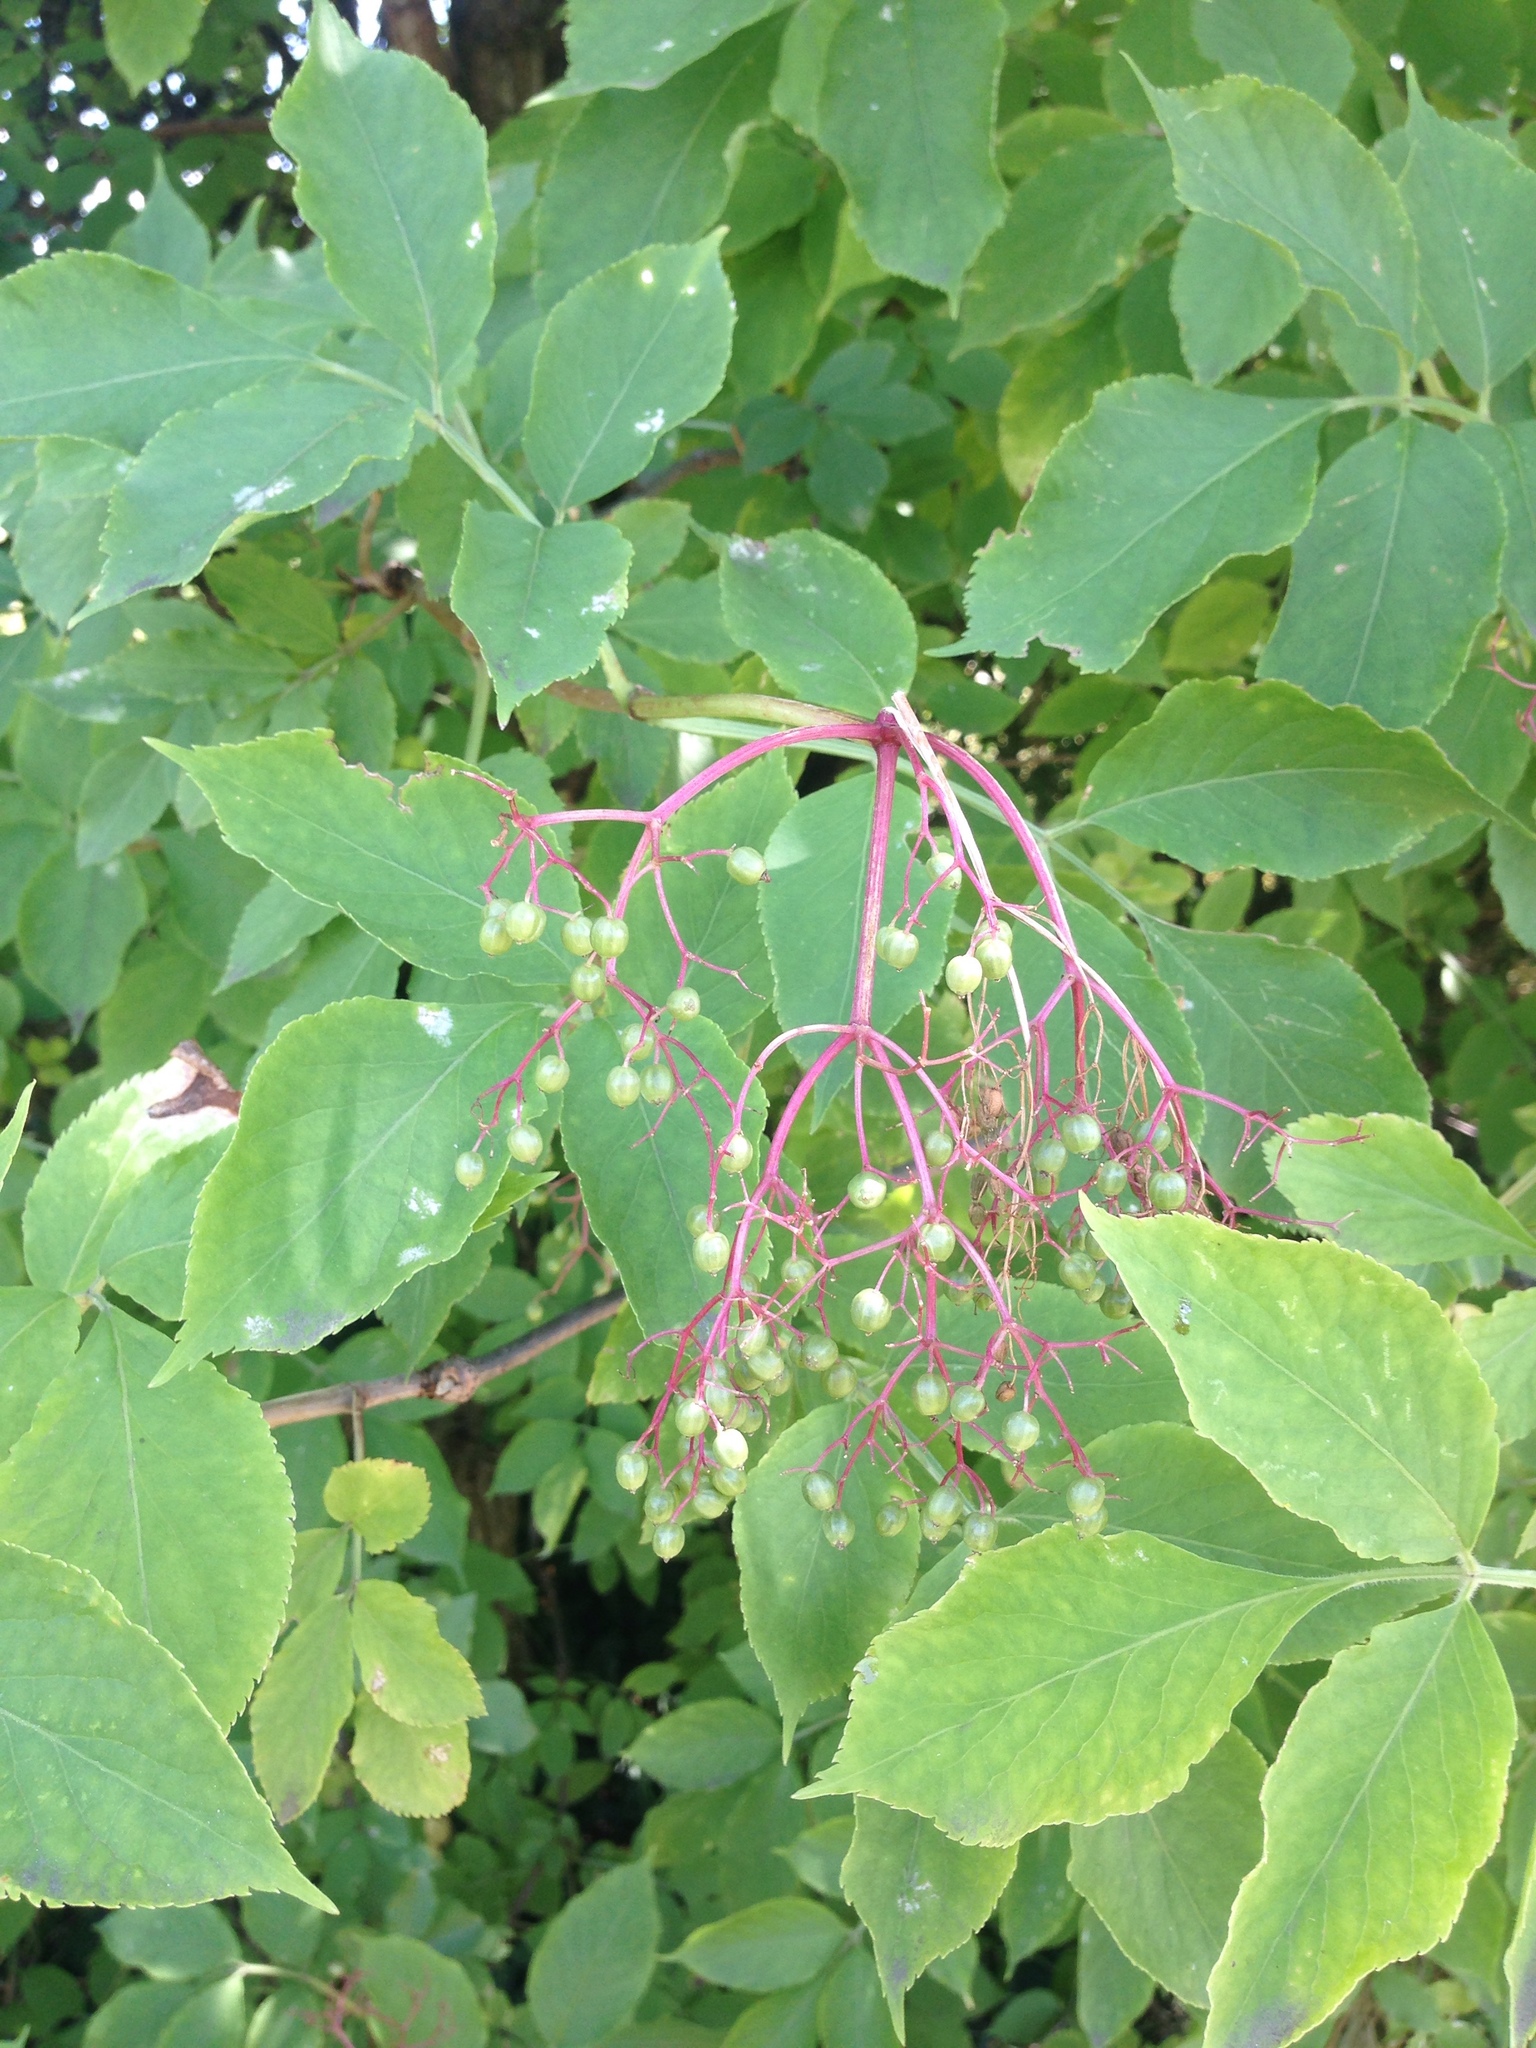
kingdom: Plantae
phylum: Tracheophyta
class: Magnoliopsida
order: Dipsacales
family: Viburnaceae
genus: Sambucus
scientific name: Sambucus nigra
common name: Elder
